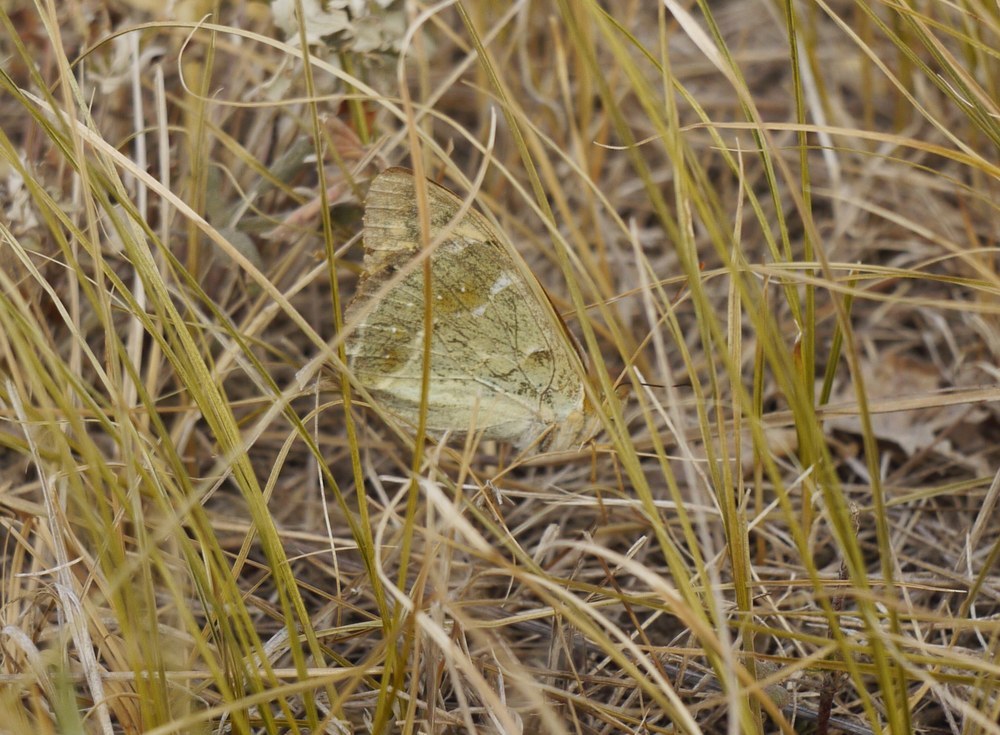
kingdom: Animalia
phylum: Arthropoda
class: Insecta
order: Lepidoptera
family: Nymphalidae
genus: Damora
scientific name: Damora pandora
